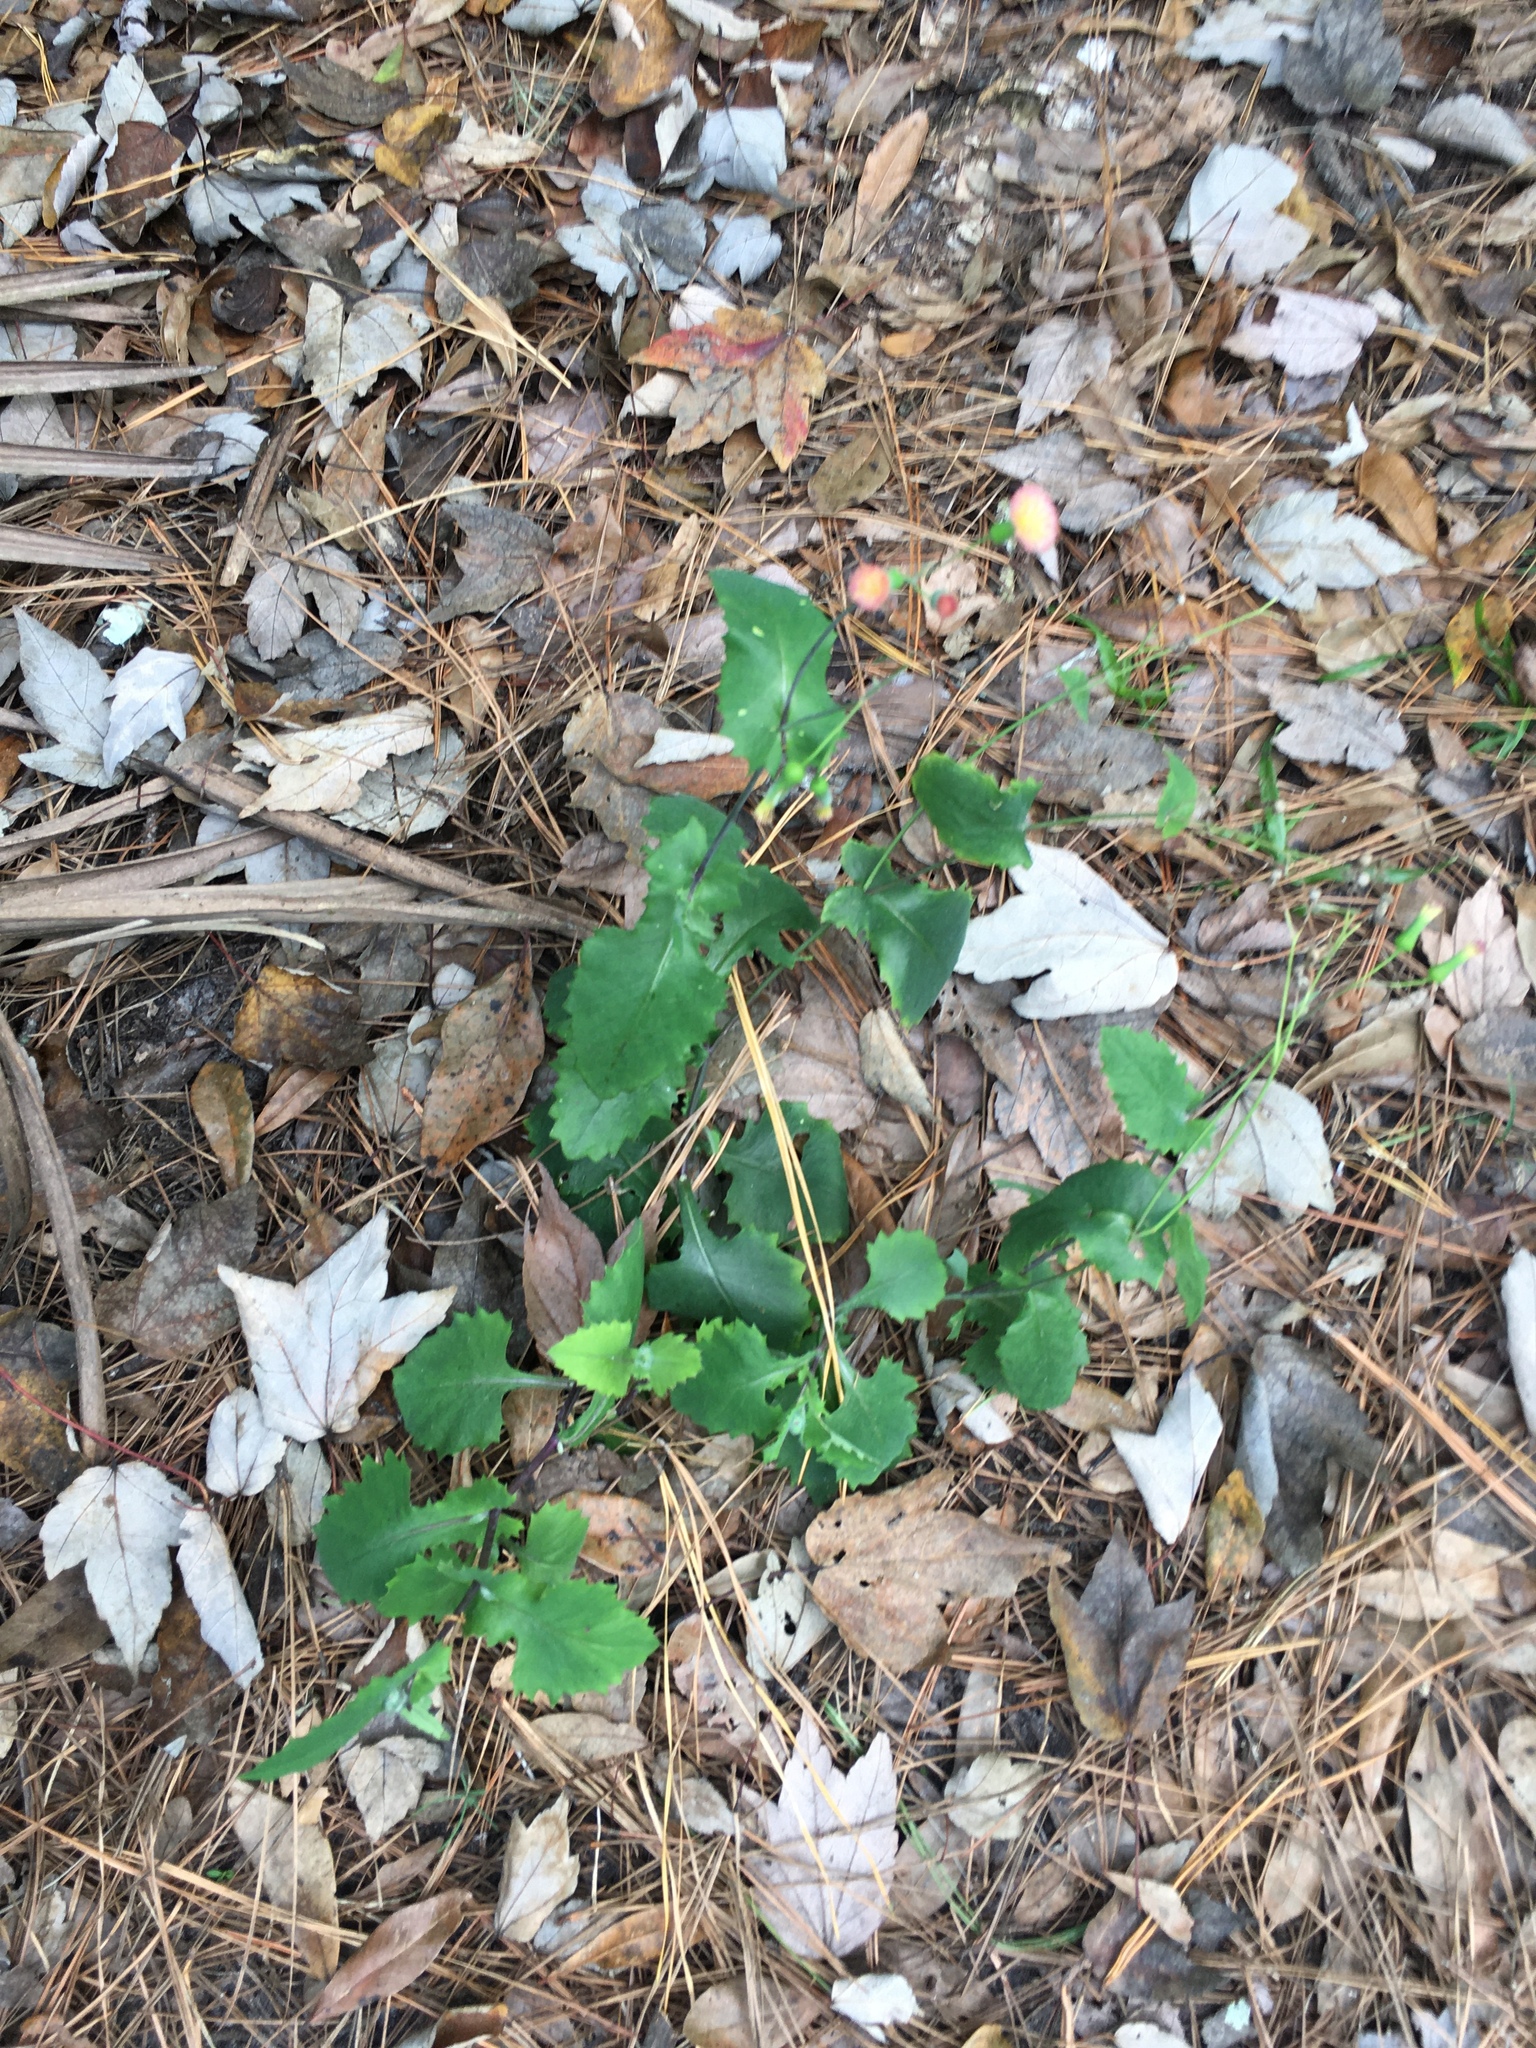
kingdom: Plantae
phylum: Tracheophyta
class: Magnoliopsida
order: Asterales
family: Asteraceae
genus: Emilia
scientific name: Emilia fosbergii
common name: Florida tasselflower
